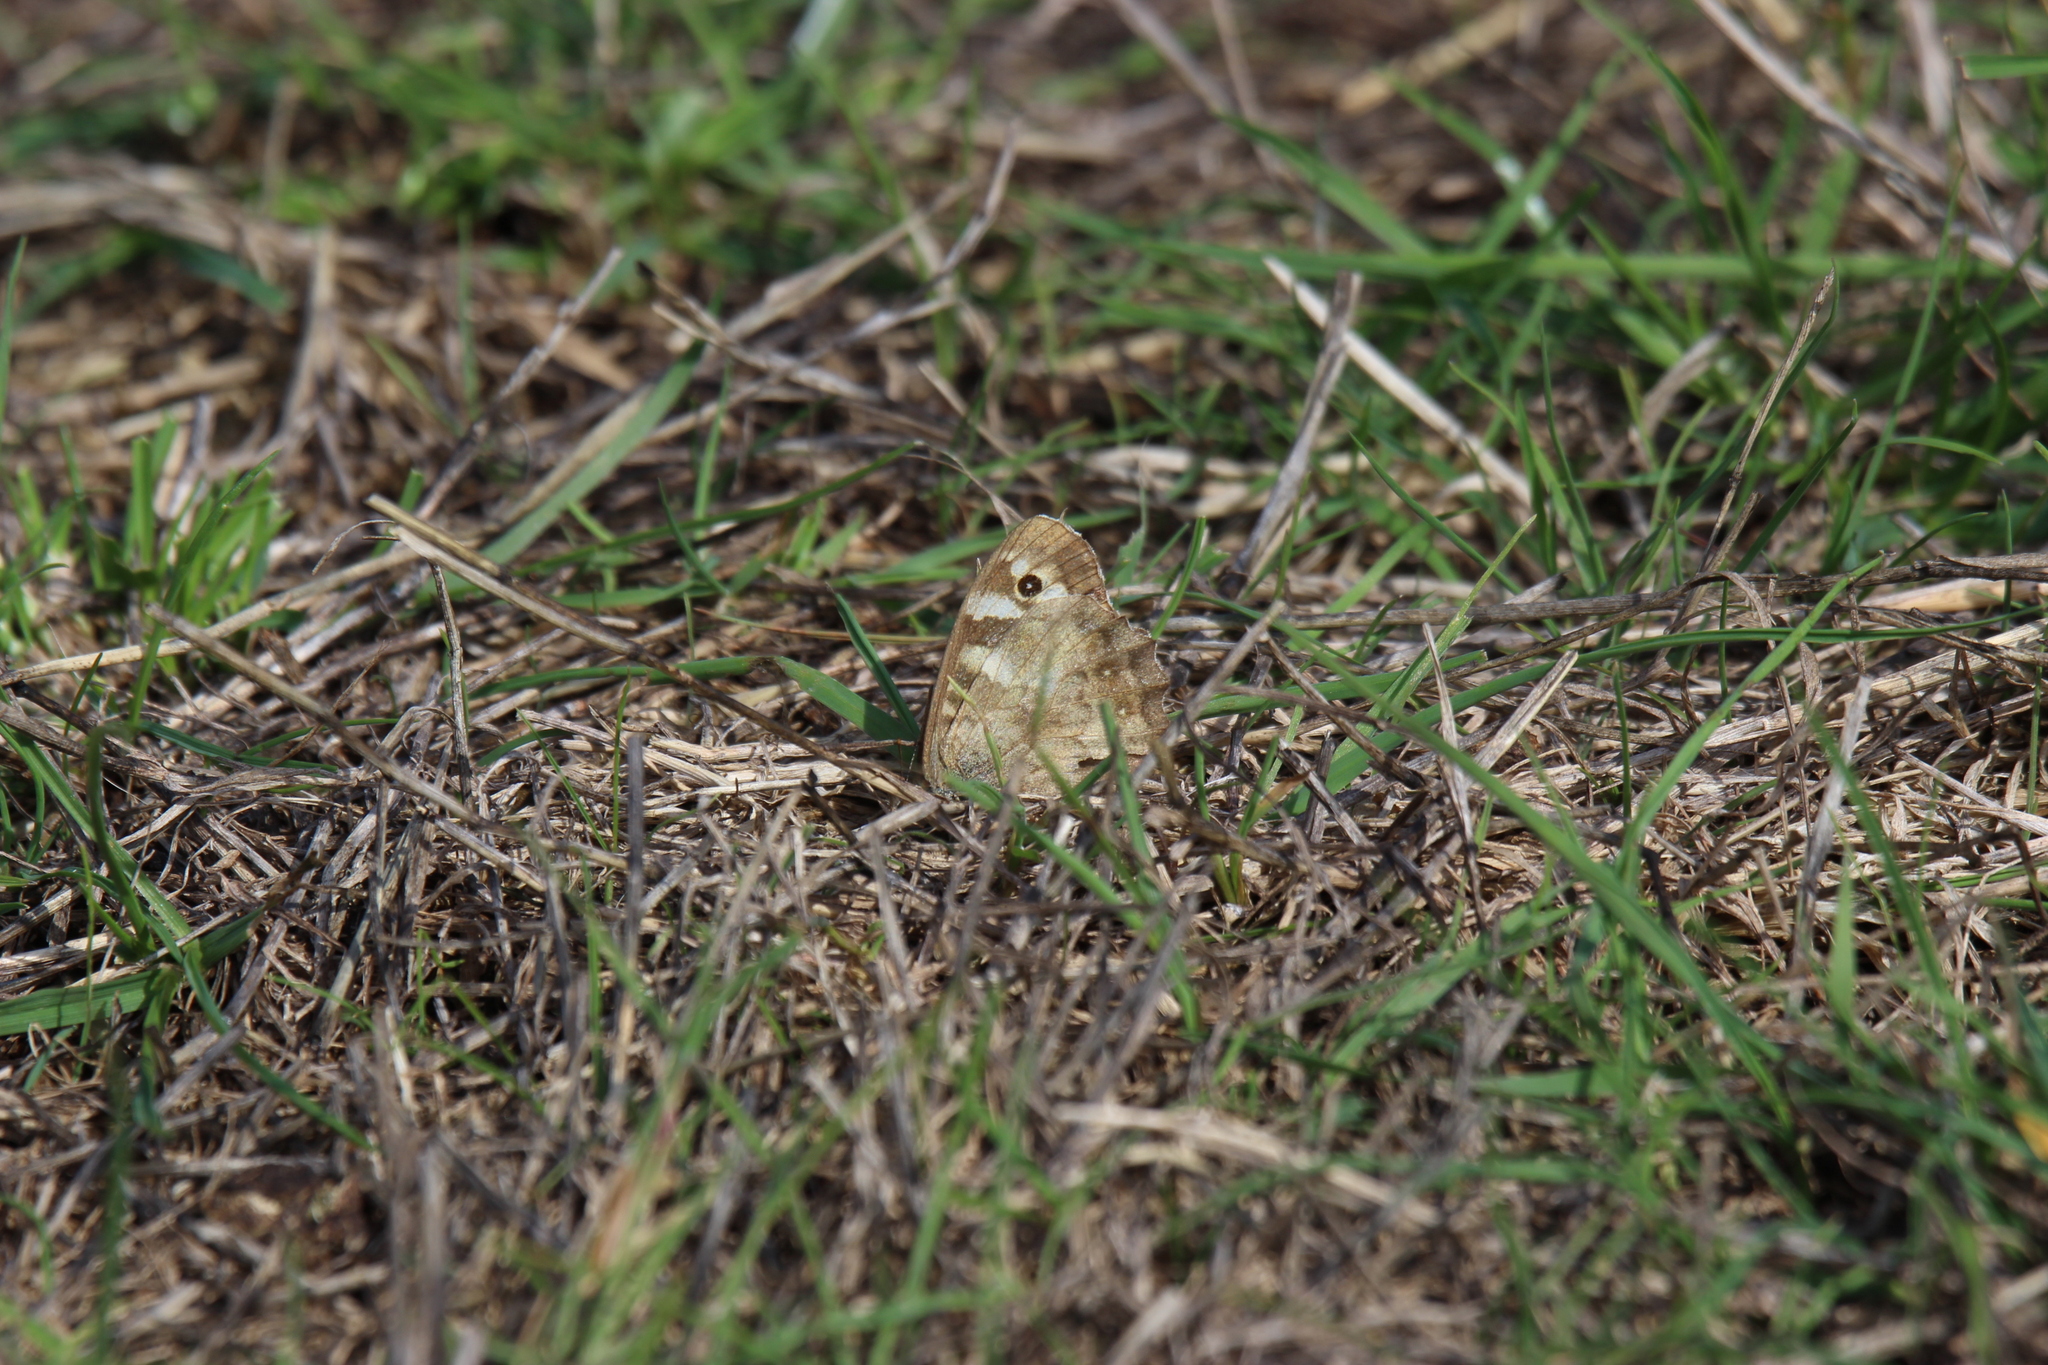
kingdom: Animalia
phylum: Arthropoda
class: Insecta
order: Lepidoptera
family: Nymphalidae
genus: Pararge
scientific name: Pararge aegeria
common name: Speckled wood
